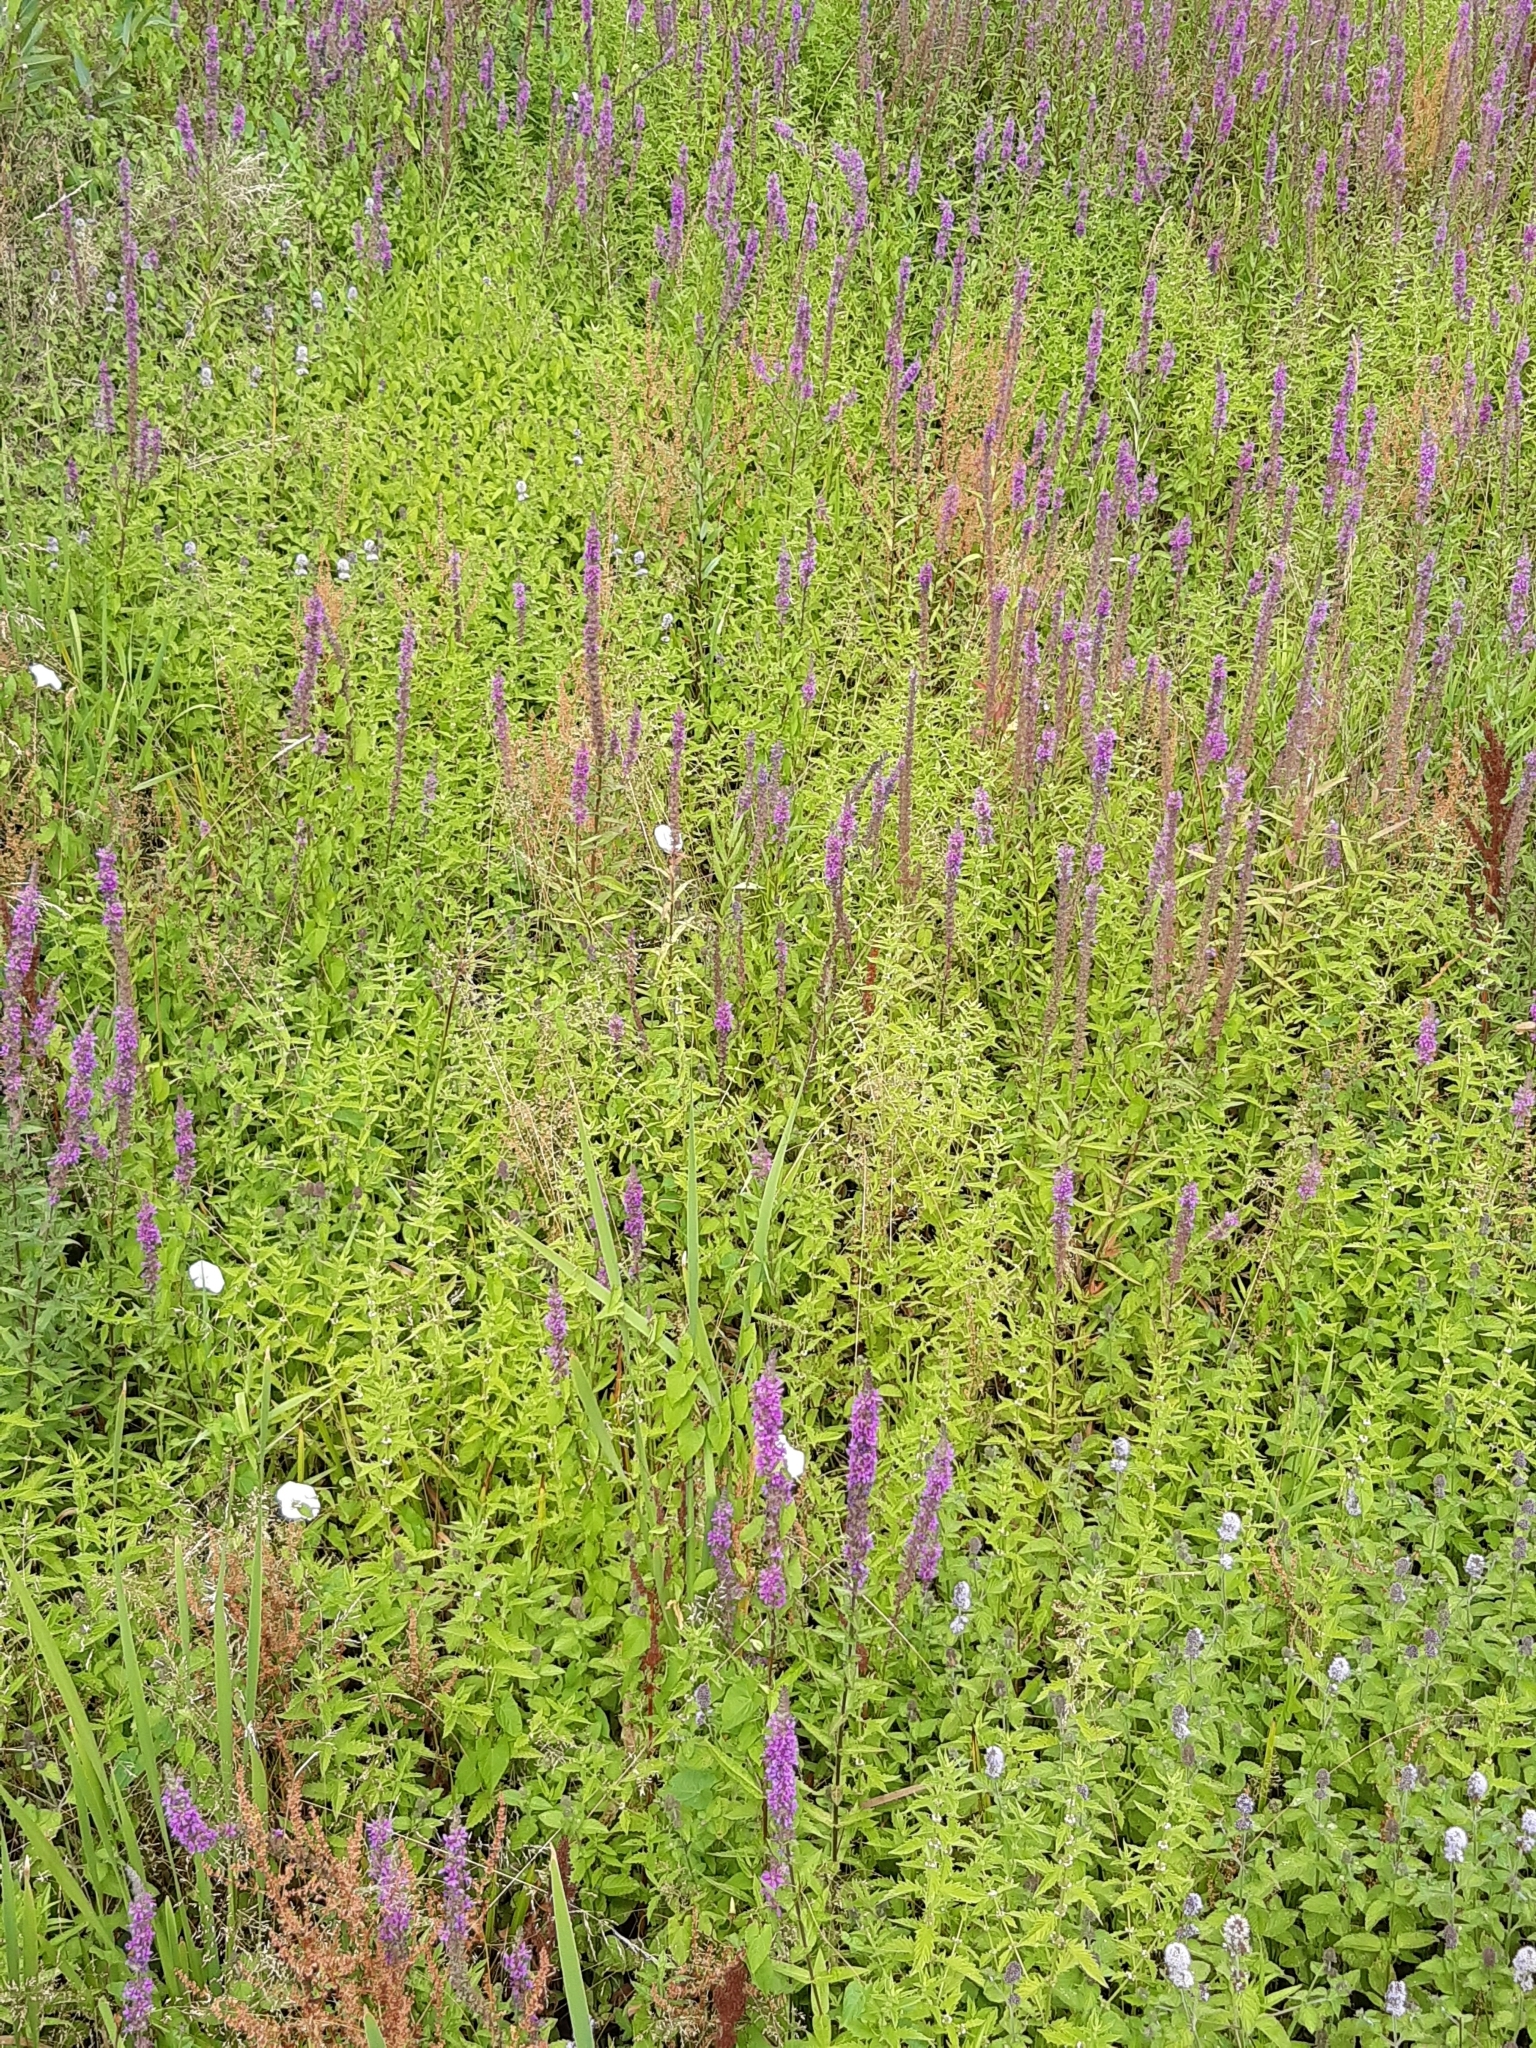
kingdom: Plantae
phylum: Tracheophyta
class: Magnoliopsida
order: Myrtales
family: Lythraceae
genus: Lythrum
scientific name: Lythrum salicaria
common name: Purple loosestrife
